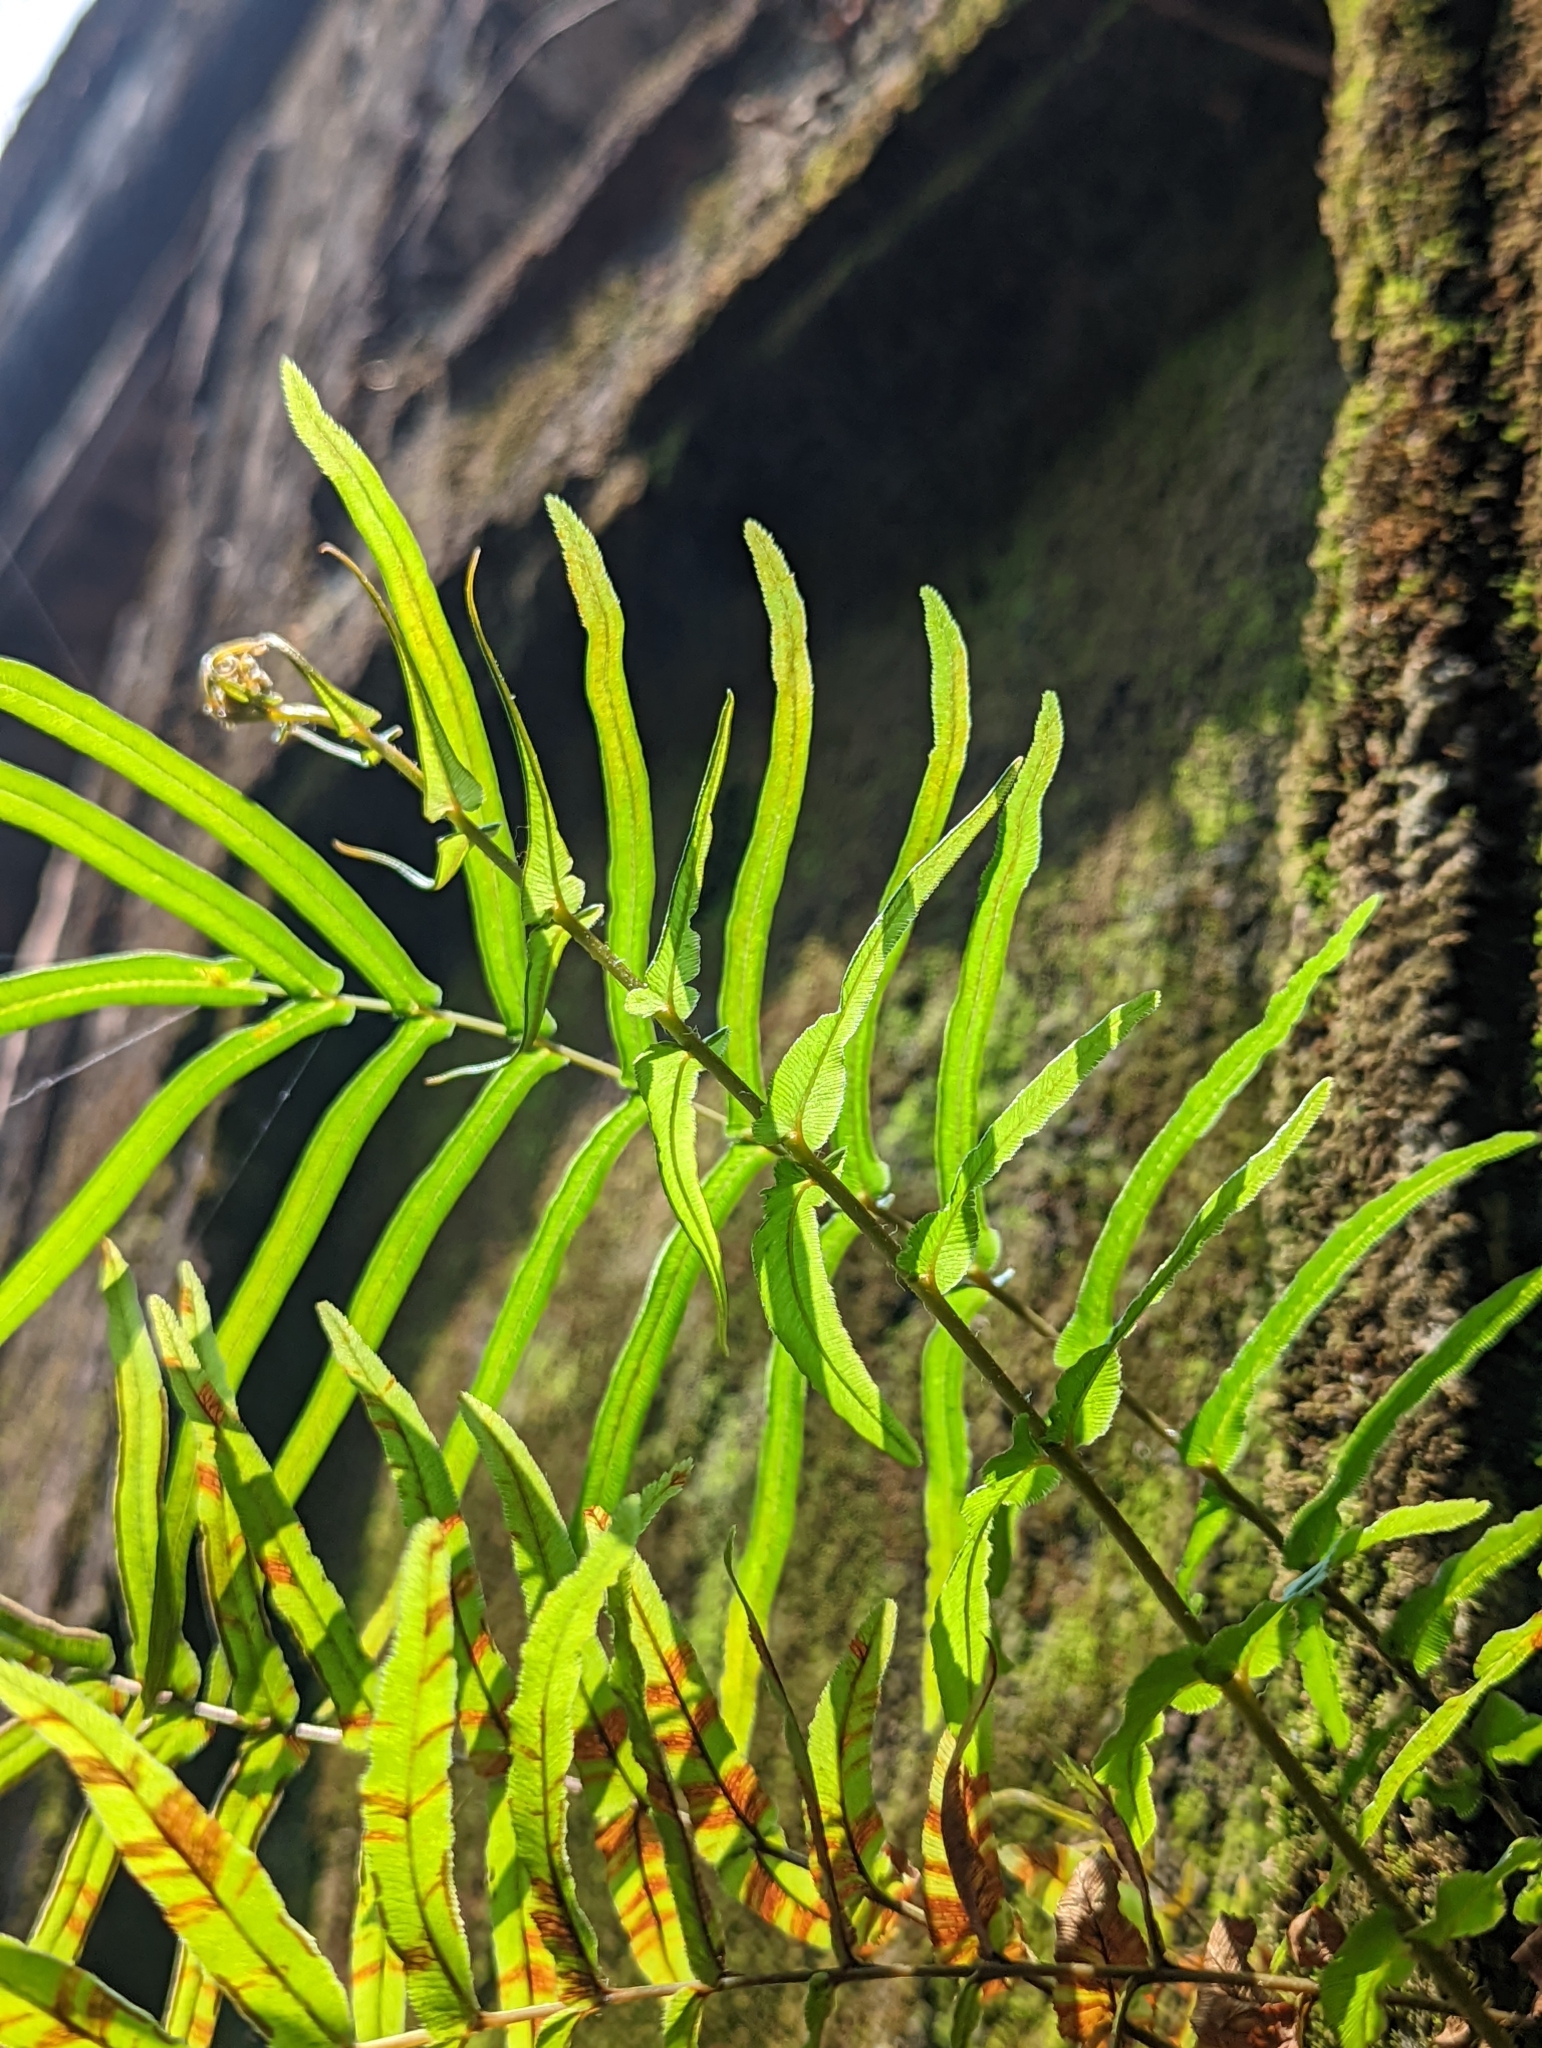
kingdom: Plantae
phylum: Tracheophyta
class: Polypodiopsida
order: Polypodiales
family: Pteridaceae
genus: Pteris
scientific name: Pteris vittata
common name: Ladder brake
